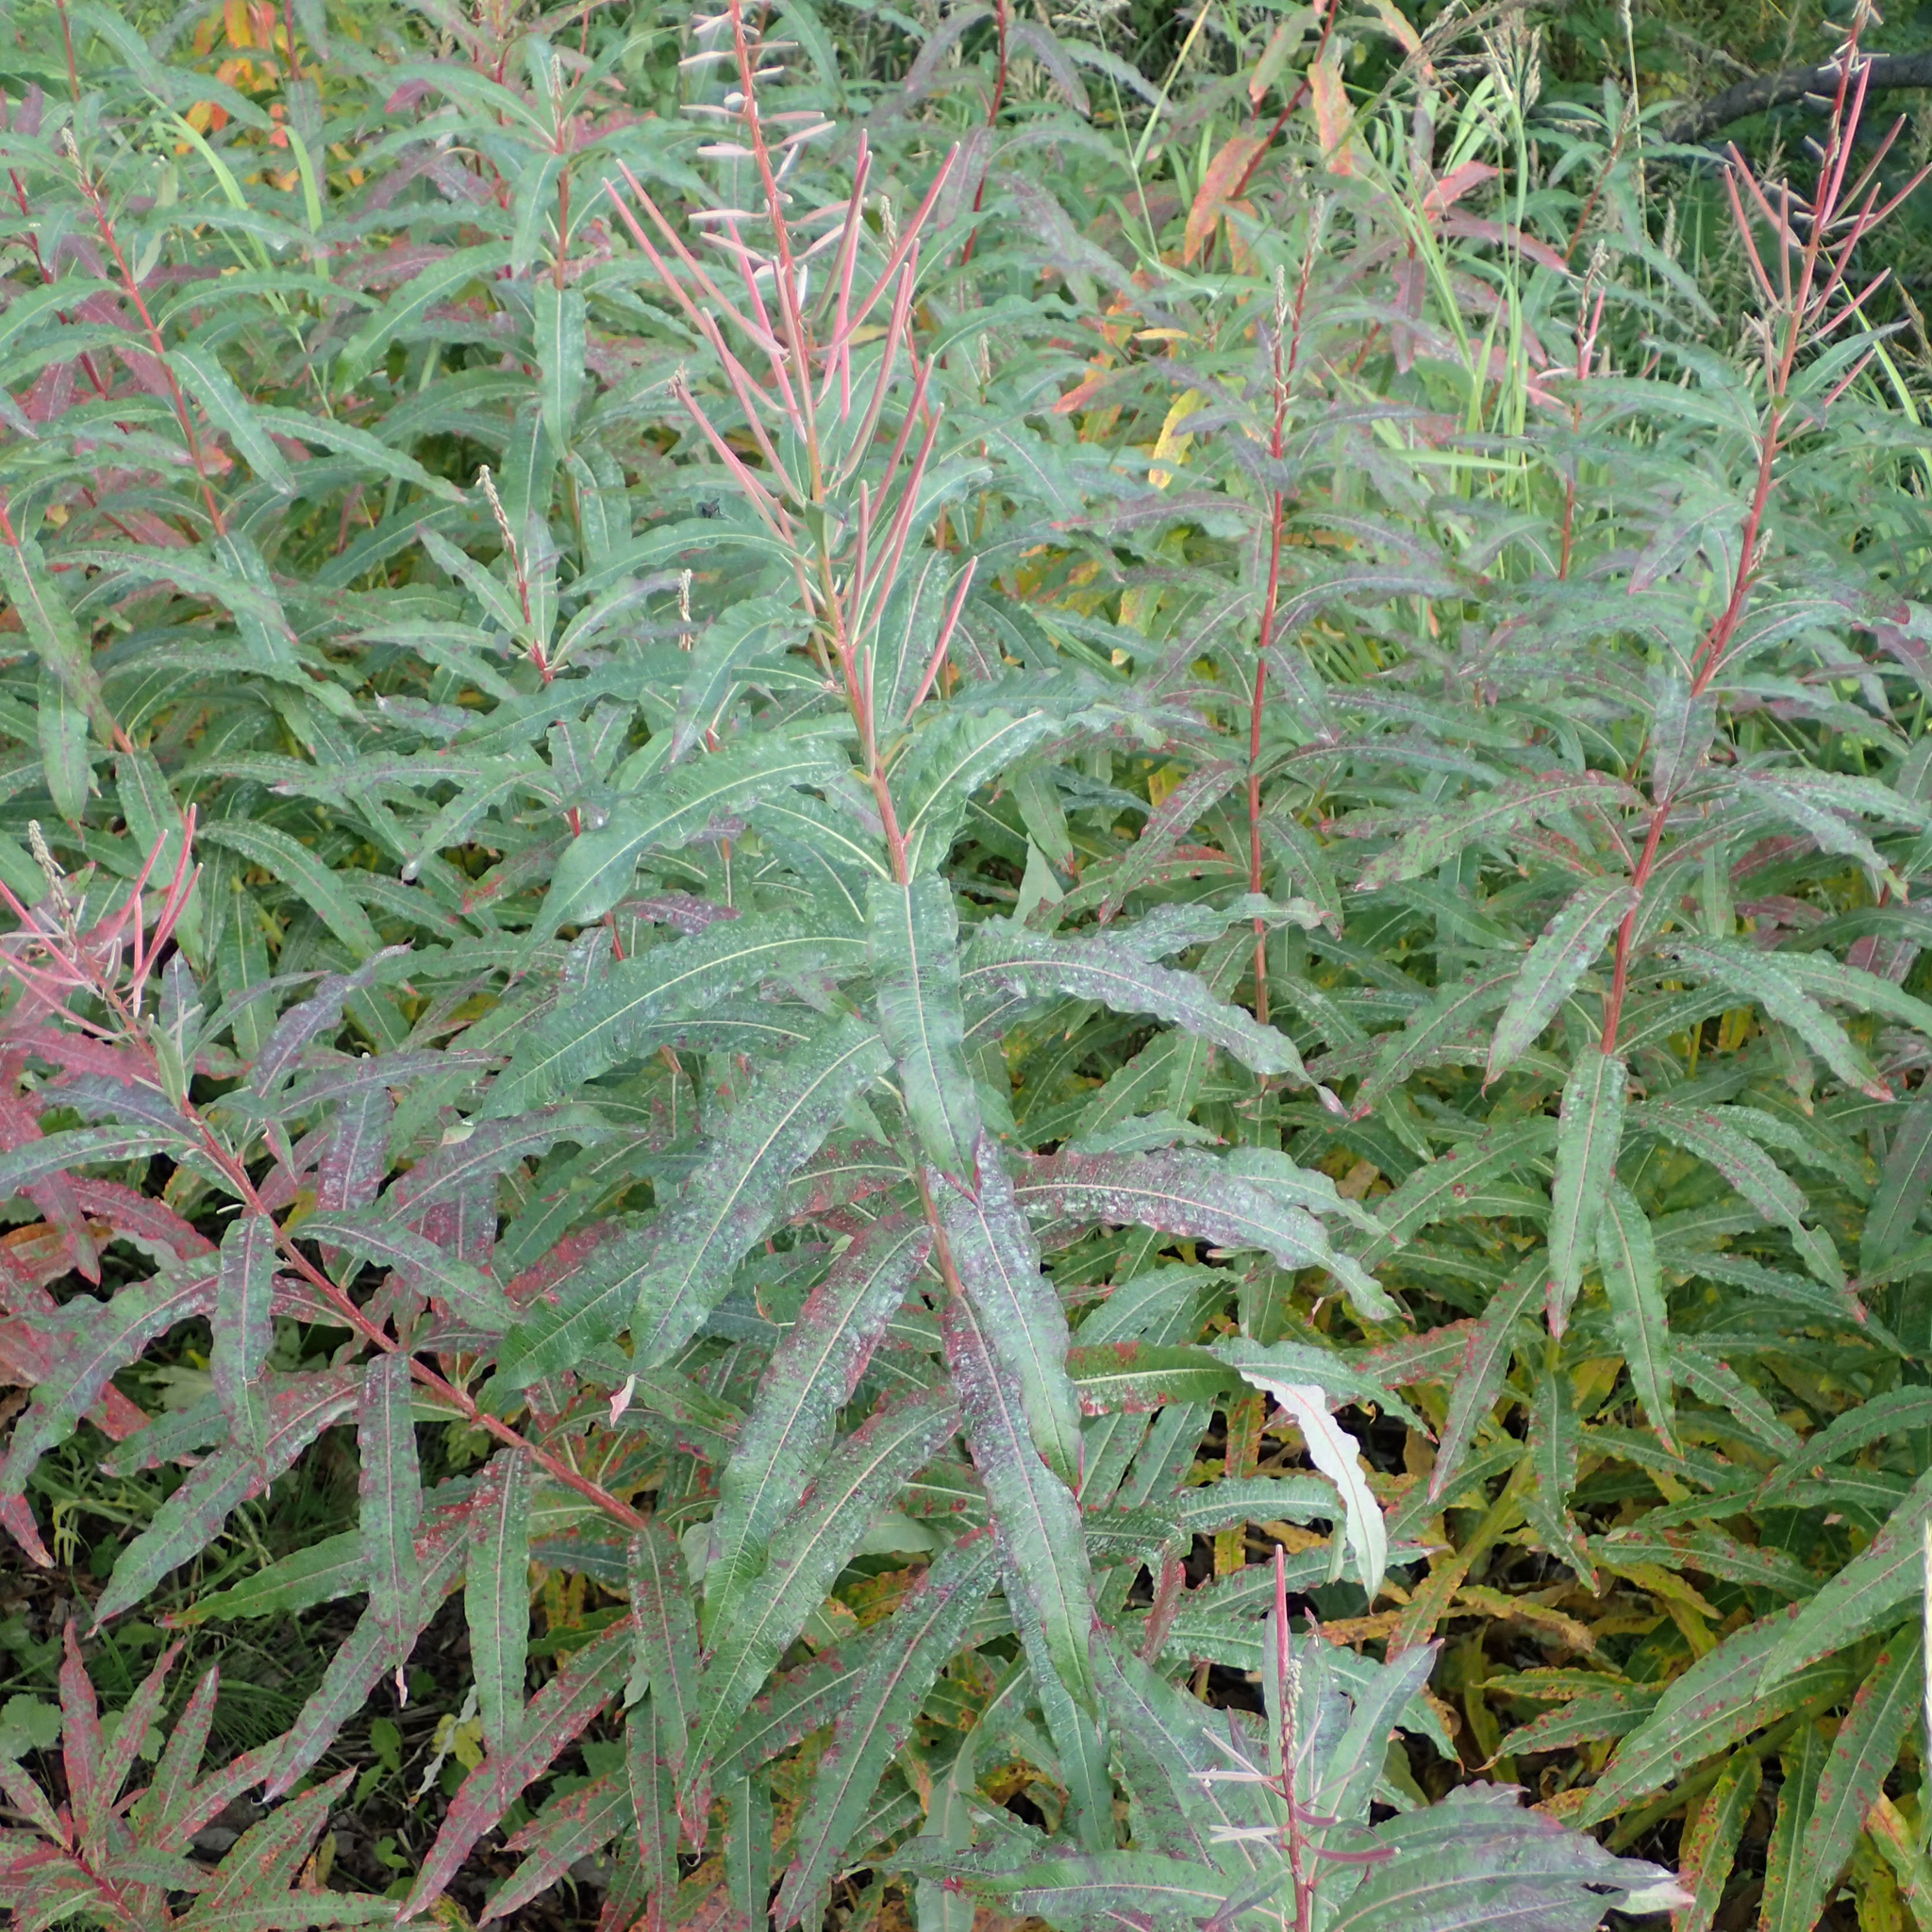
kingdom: Plantae
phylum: Tracheophyta
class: Magnoliopsida
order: Myrtales
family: Onagraceae
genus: Chamaenerion
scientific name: Chamaenerion angustifolium
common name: Fireweed
